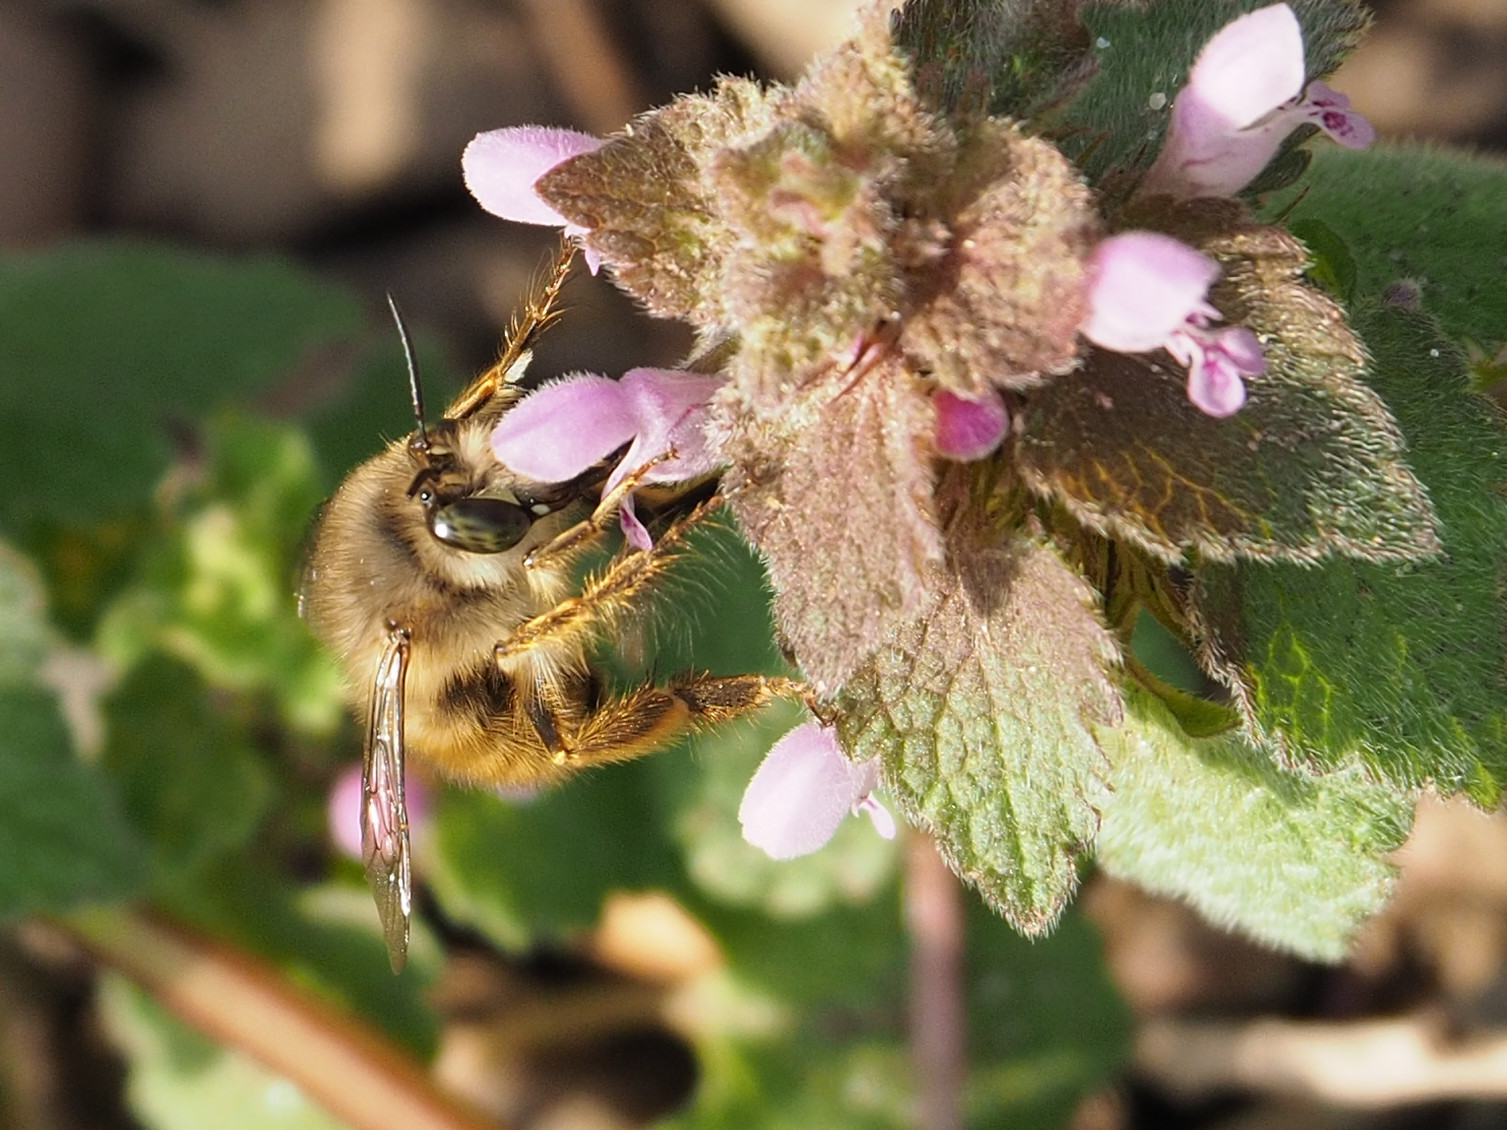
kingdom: Animalia
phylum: Arthropoda
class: Insecta
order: Hymenoptera
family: Apidae
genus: Anthophora
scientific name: Anthophora villosula
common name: Asian shaggy digger
